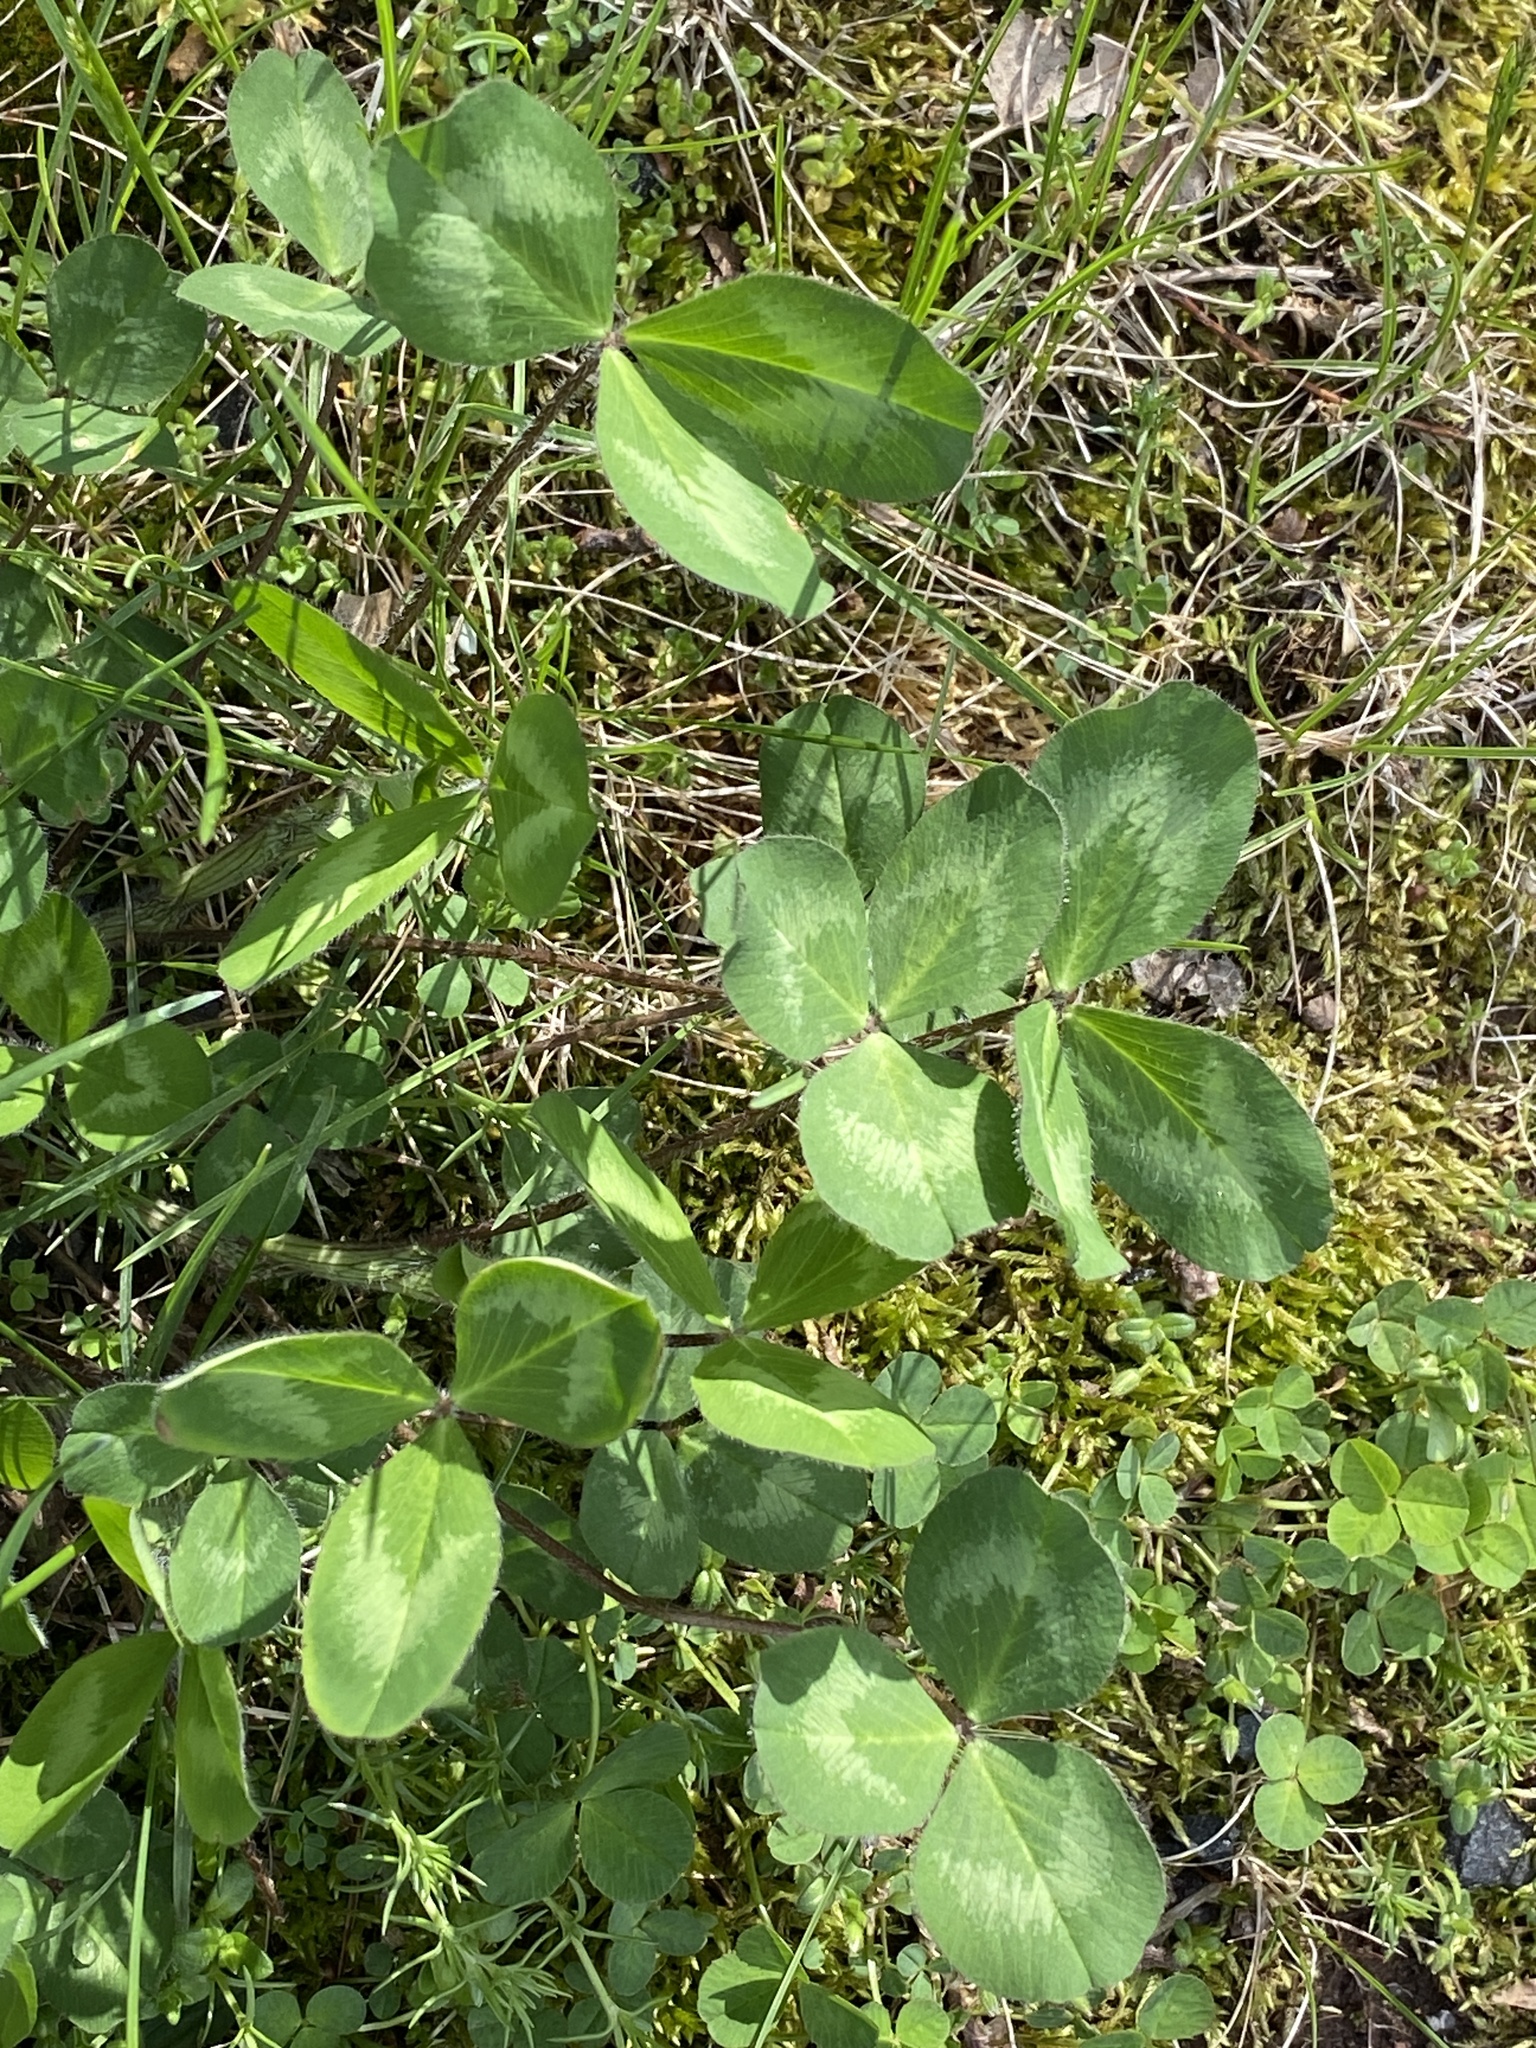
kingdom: Plantae
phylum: Tracheophyta
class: Magnoliopsida
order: Fabales
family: Fabaceae
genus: Trifolium
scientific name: Trifolium pratense
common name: Red clover
